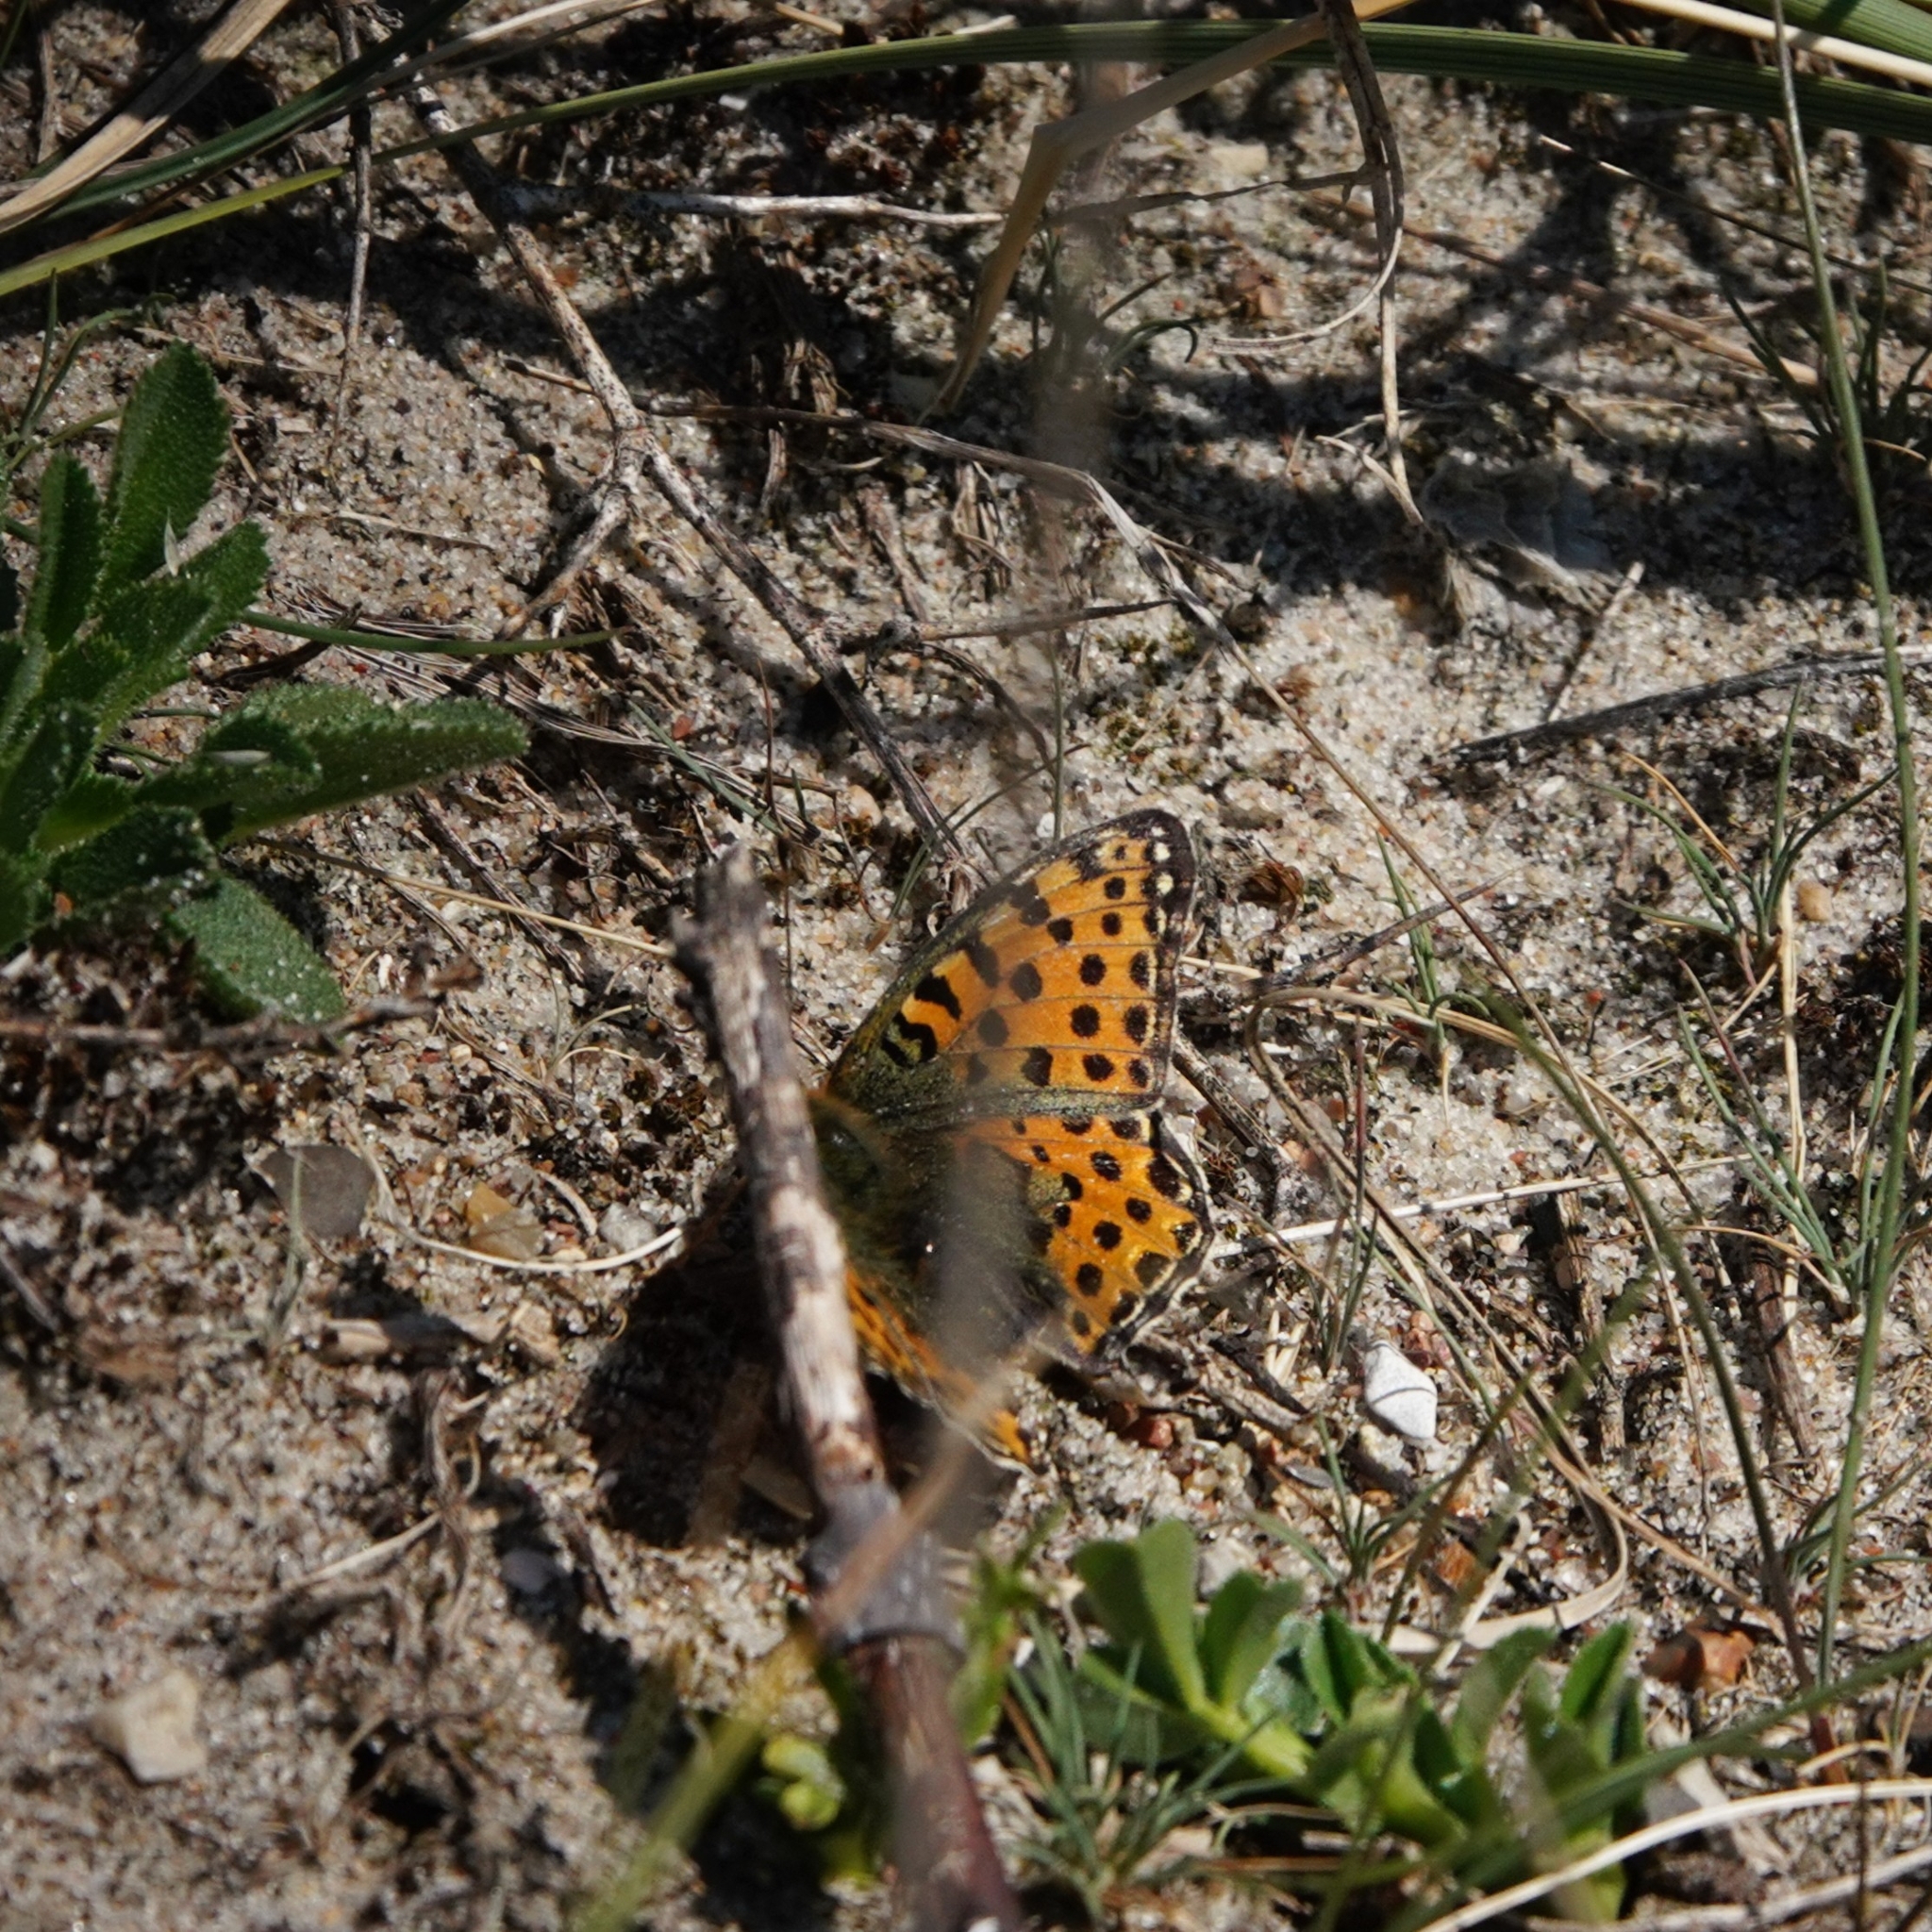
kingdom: Animalia
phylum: Arthropoda
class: Insecta
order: Lepidoptera
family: Nymphalidae
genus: Issoria
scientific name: Issoria lathonia
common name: Queen of spain fritillary
